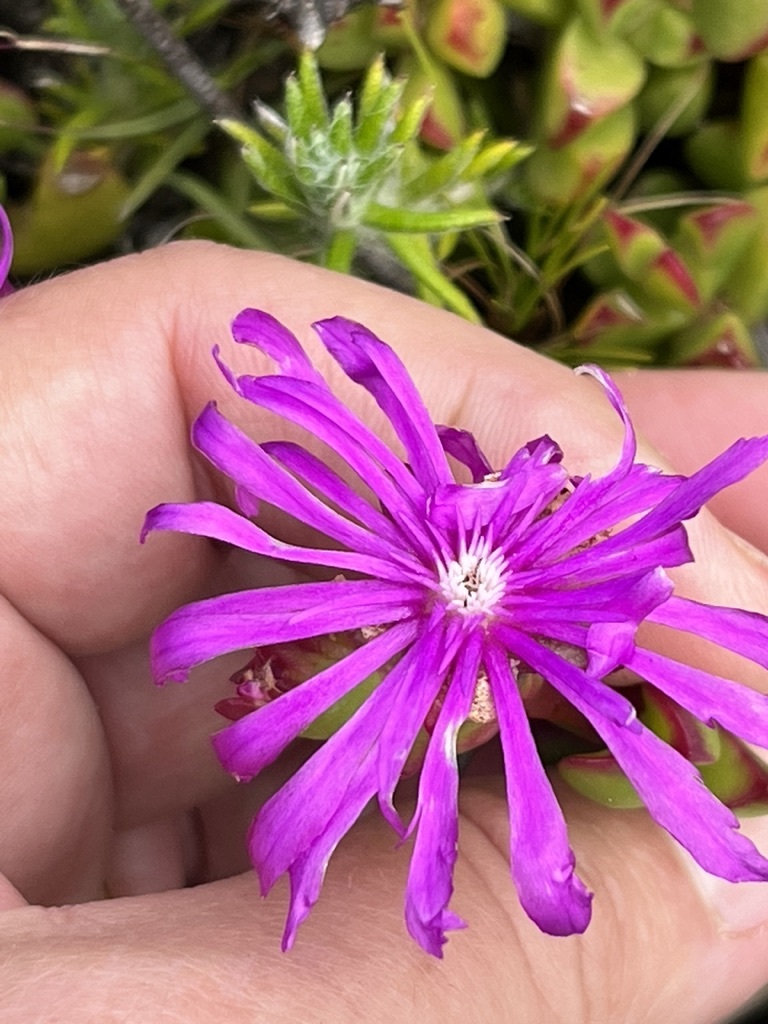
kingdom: Plantae
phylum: Tracheophyta
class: Magnoliopsida
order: Caryophyllales
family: Aizoaceae
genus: Erepsia
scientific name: Erepsia inclaudens
